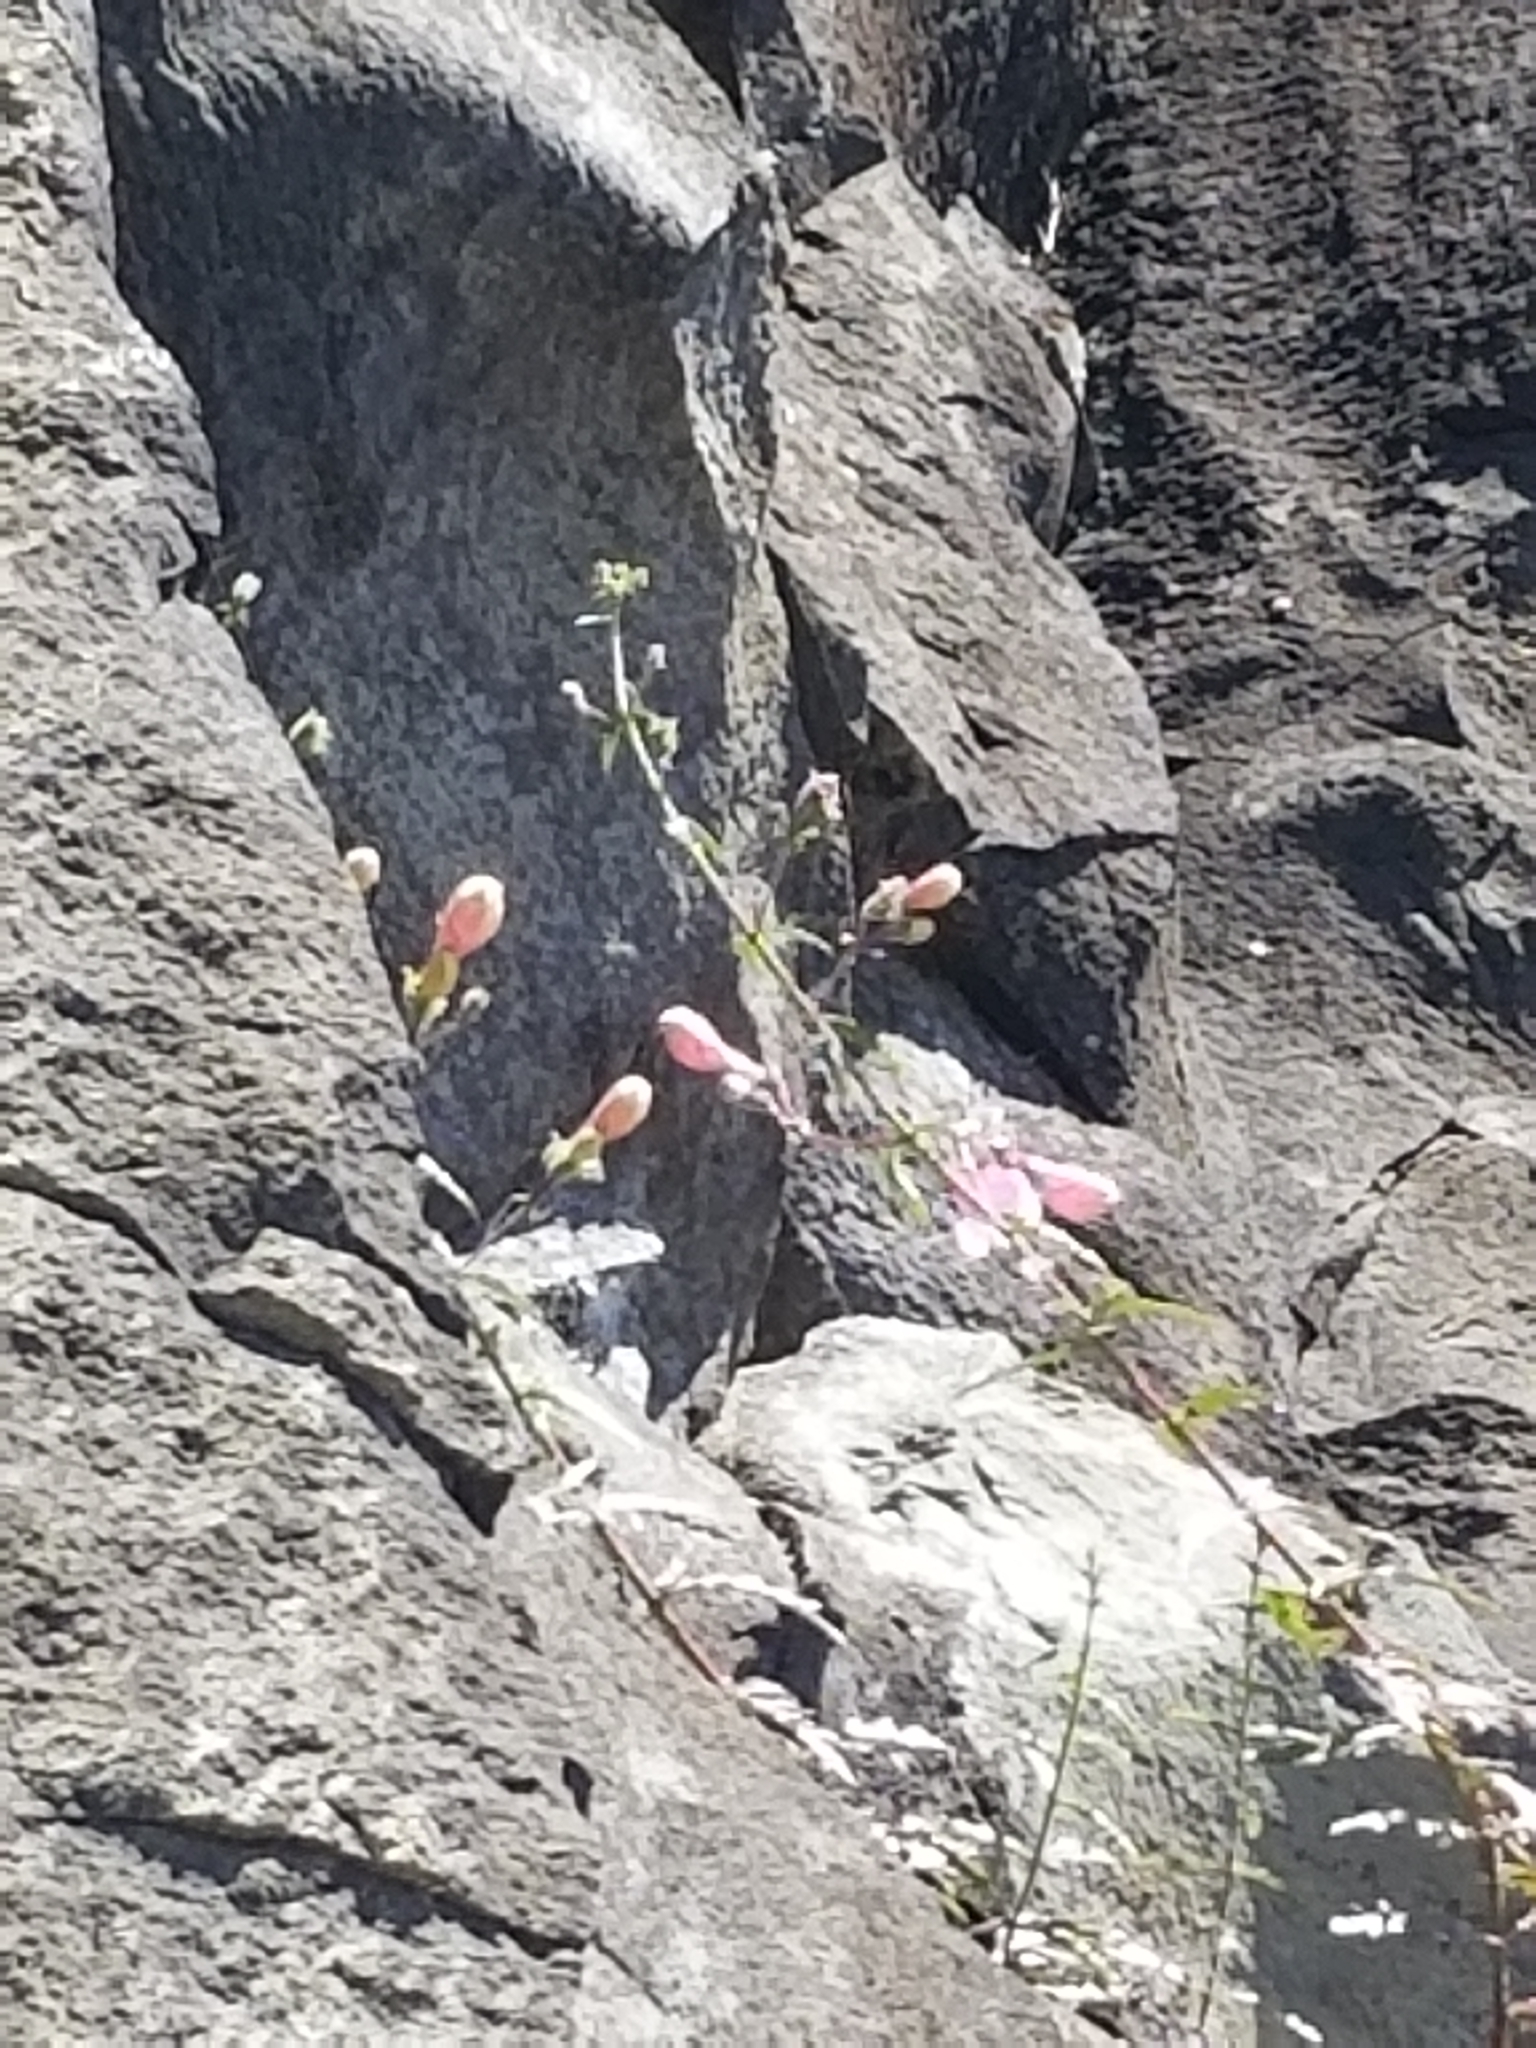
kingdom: Plantae
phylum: Tracheophyta
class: Magnoliopsida
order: Lamiales
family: Plantaginaceae
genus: Penstemon
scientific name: Penstemon richardsonii
